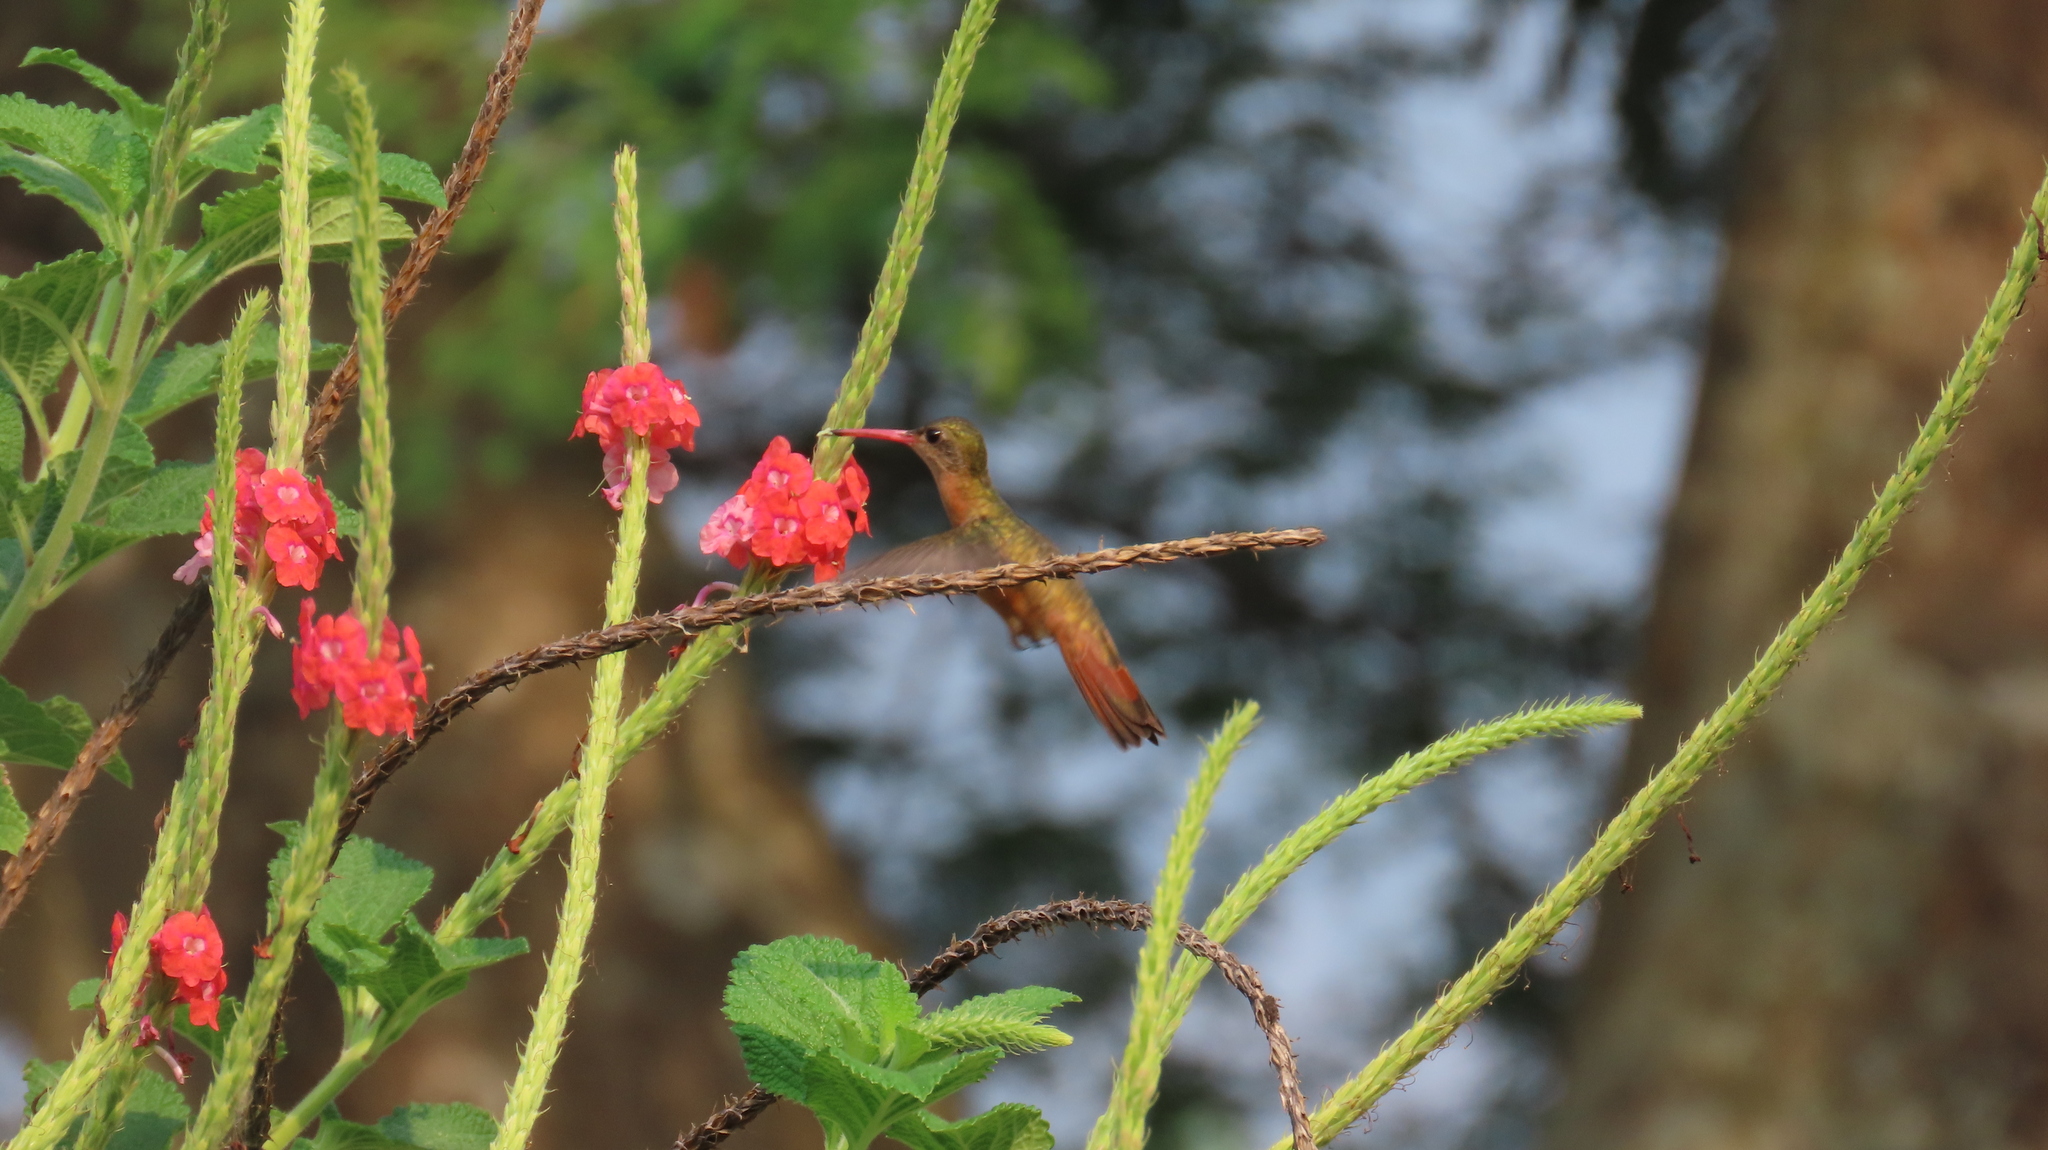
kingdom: Animalia
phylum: Chordata
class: Aves
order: Apodiformes
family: Trochilidae
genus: Amazilia
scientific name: Amazilia rutila
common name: Cinnamon hummingbird
